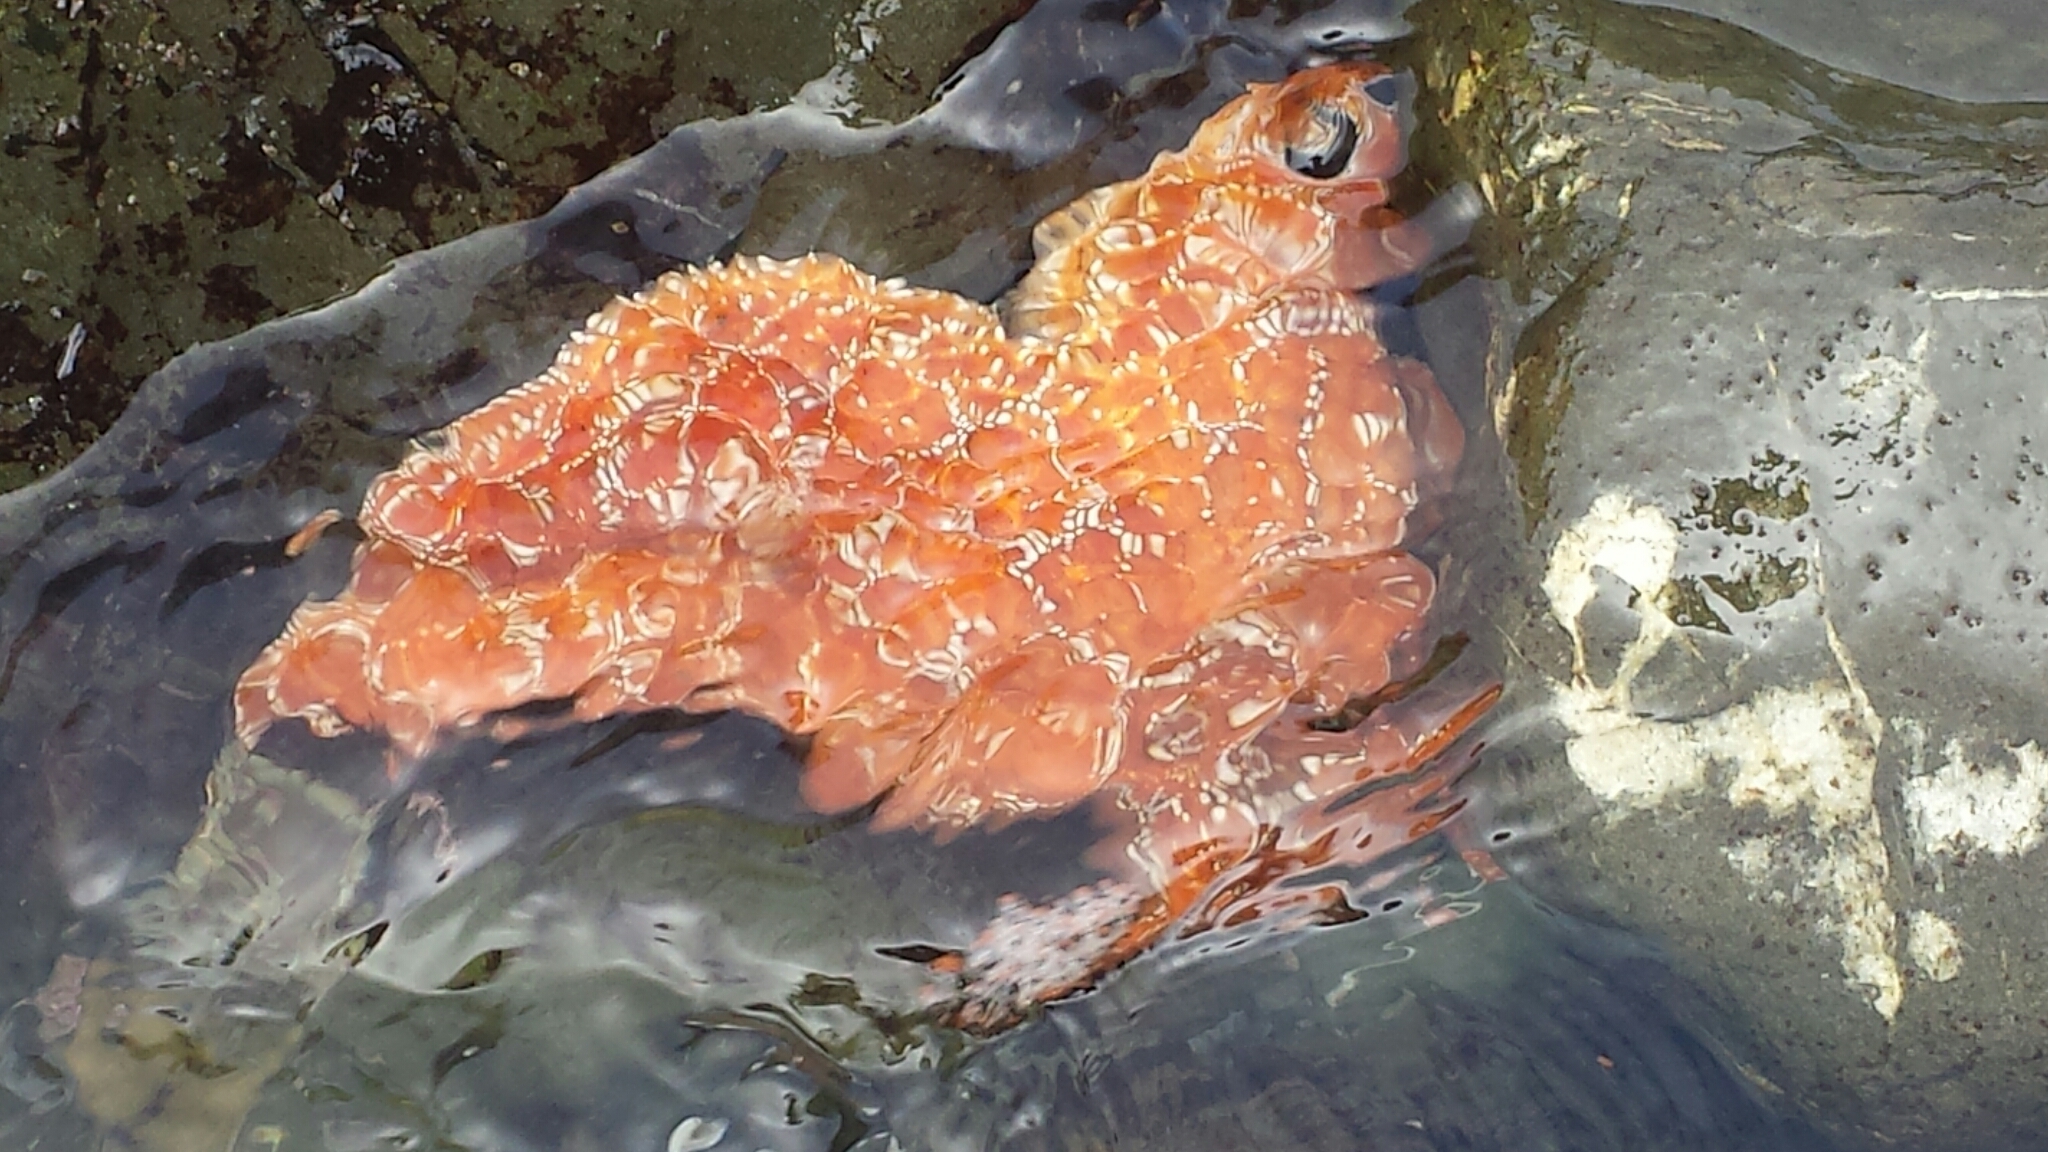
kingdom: Animalia
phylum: Echinodermata
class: Asteroidea
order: Forcipulatida
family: Asteriidae
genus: Pisaster
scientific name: Pisaster ochraceus
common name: Ochre stars
